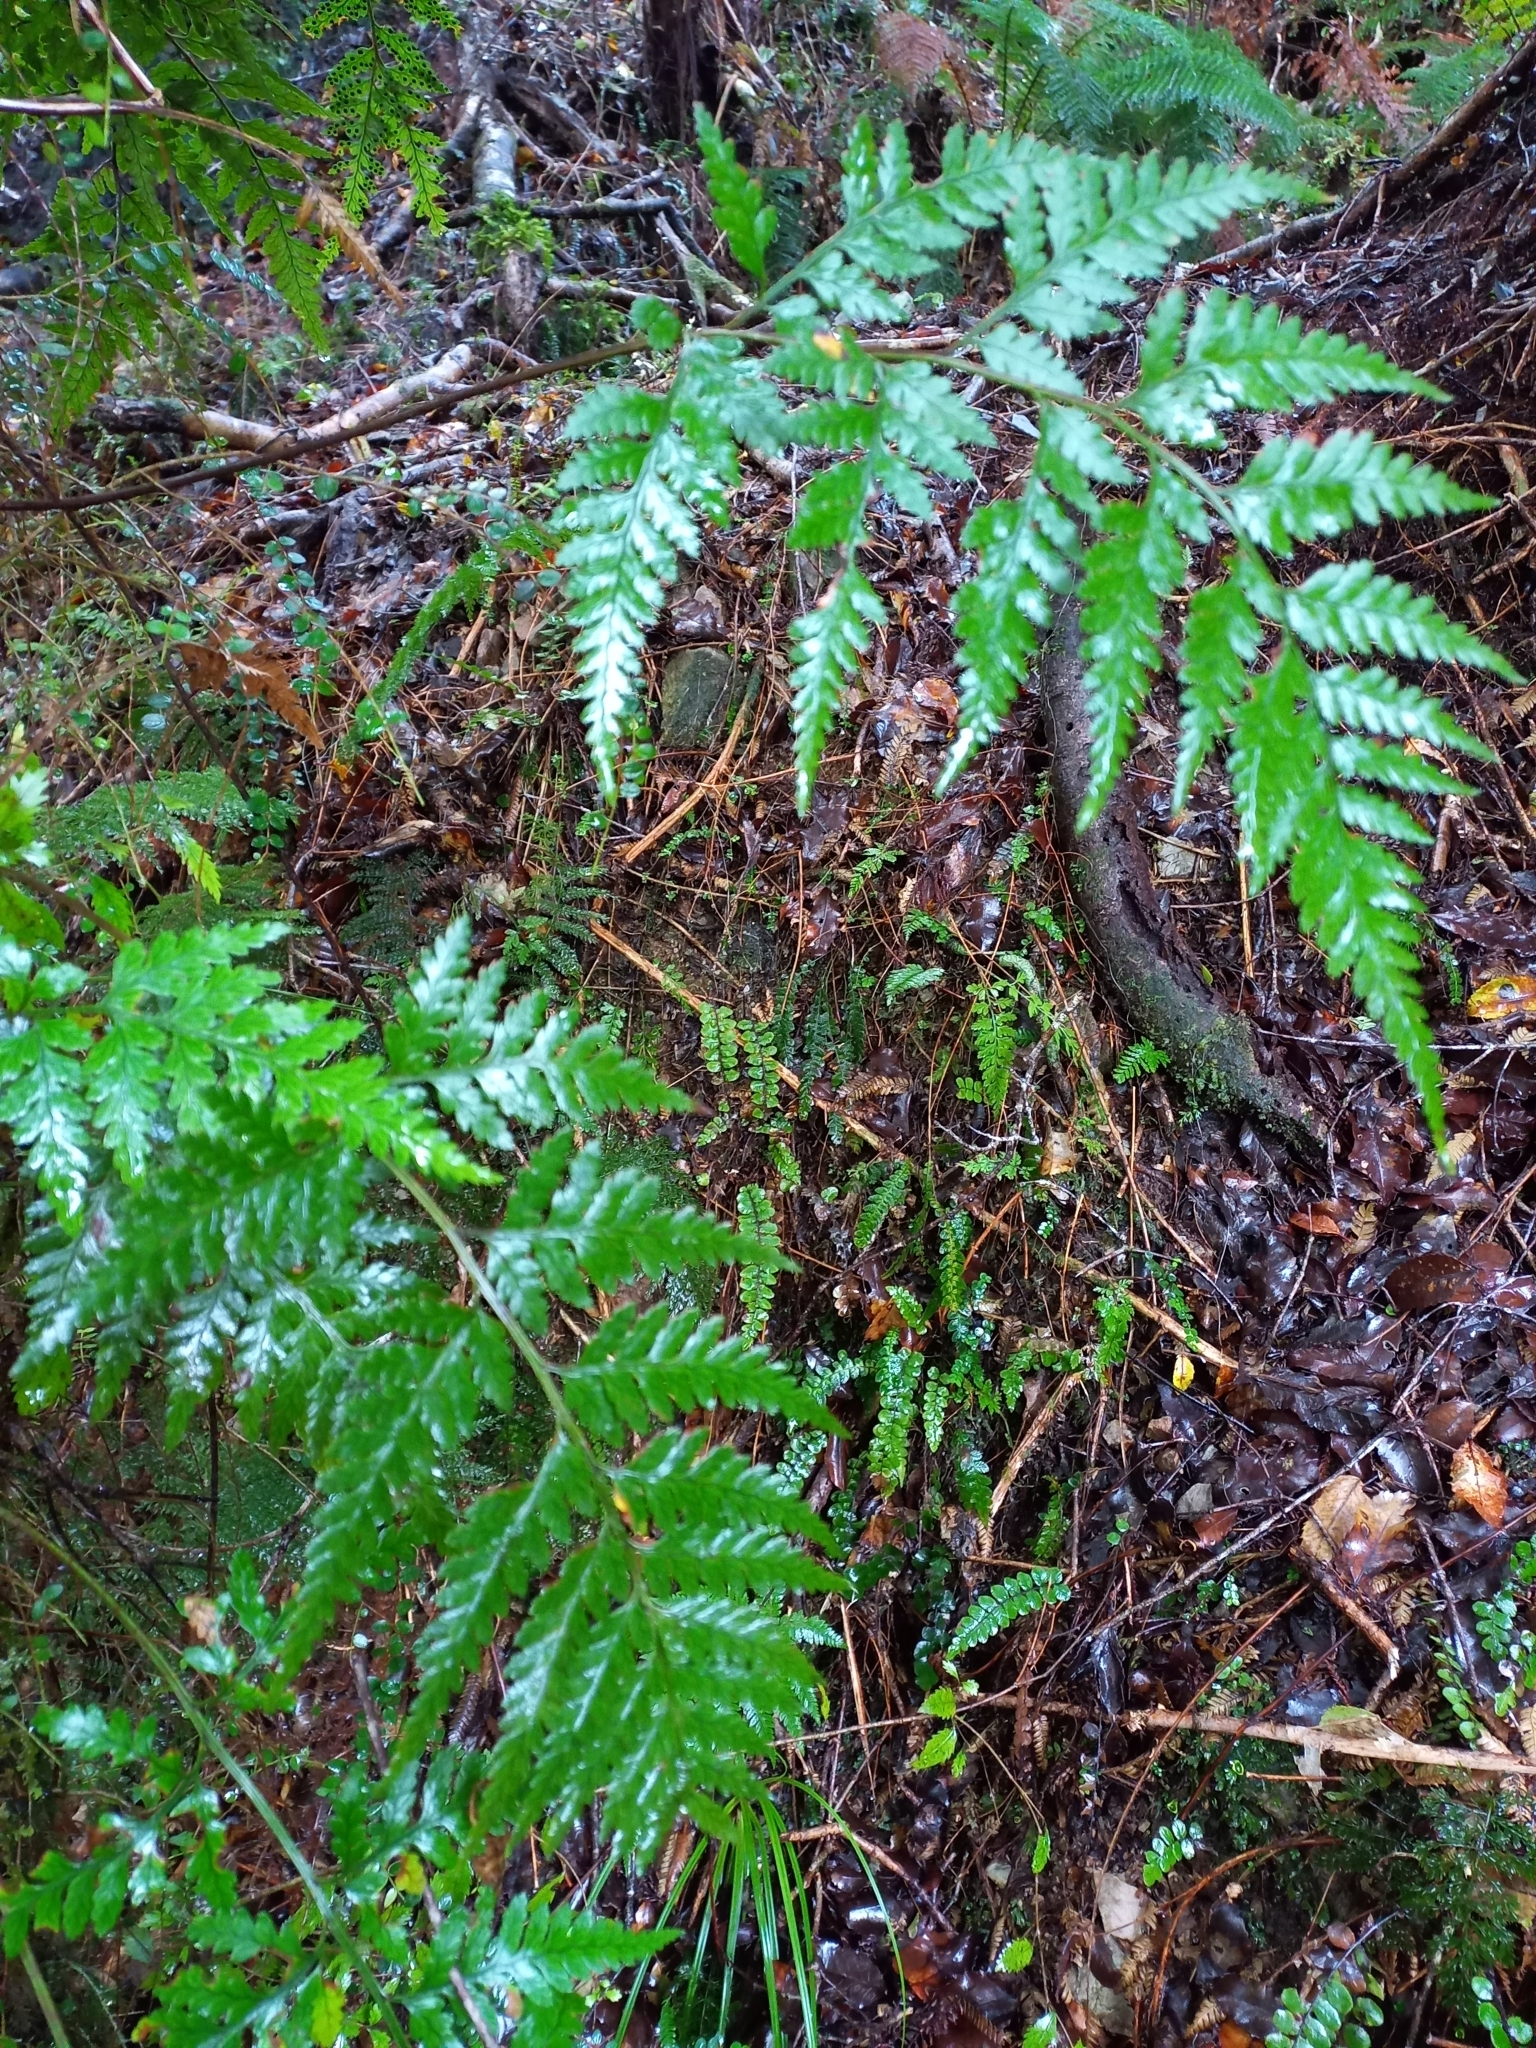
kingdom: Plantae
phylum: Tracheophyta
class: Polypodiopsida
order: Polypodiales
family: Dryopteridaceae
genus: Rumohra
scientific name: Rumohra adiantiformis
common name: Leather fern
